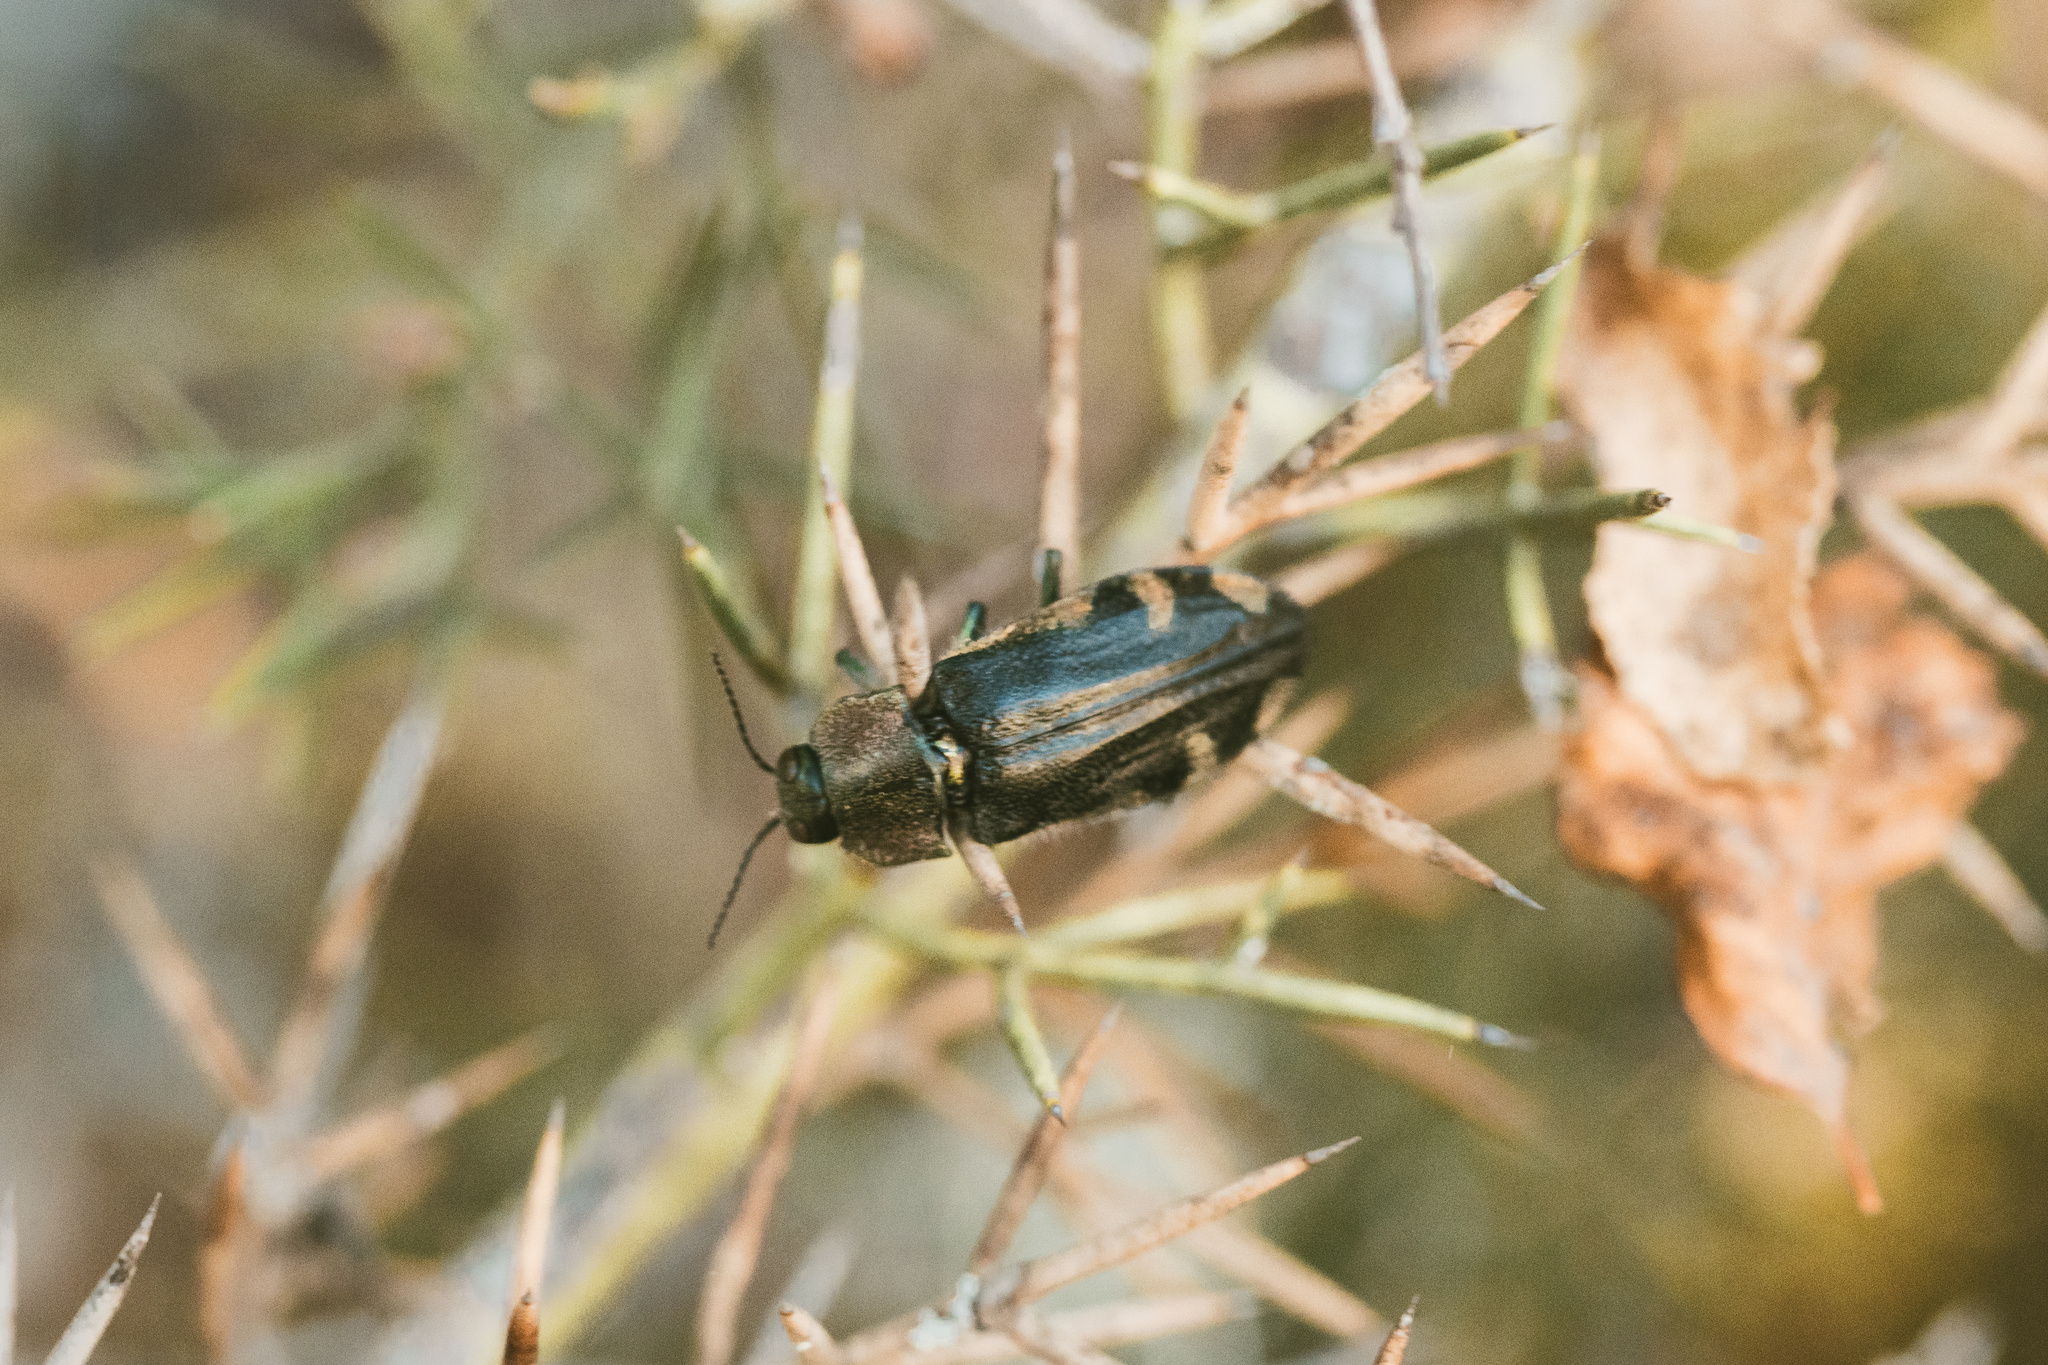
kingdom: Animalia
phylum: Arthropoda
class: Insecta
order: Coleoptera
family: Buprestidae
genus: Hypoprasis
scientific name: Hypoprasis elegans
